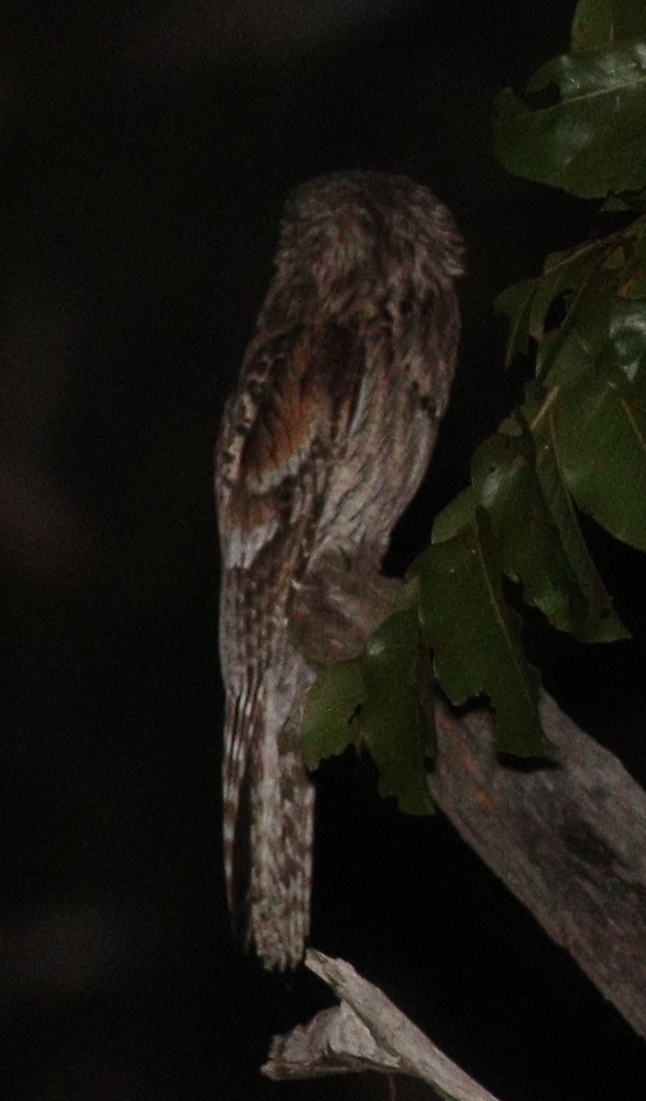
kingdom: Animalia
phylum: Chordata
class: Aves
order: Nyctibiiformes
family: Nyctibiidae
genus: Nyctibius
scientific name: Nyctibius griseus
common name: Common potoo
